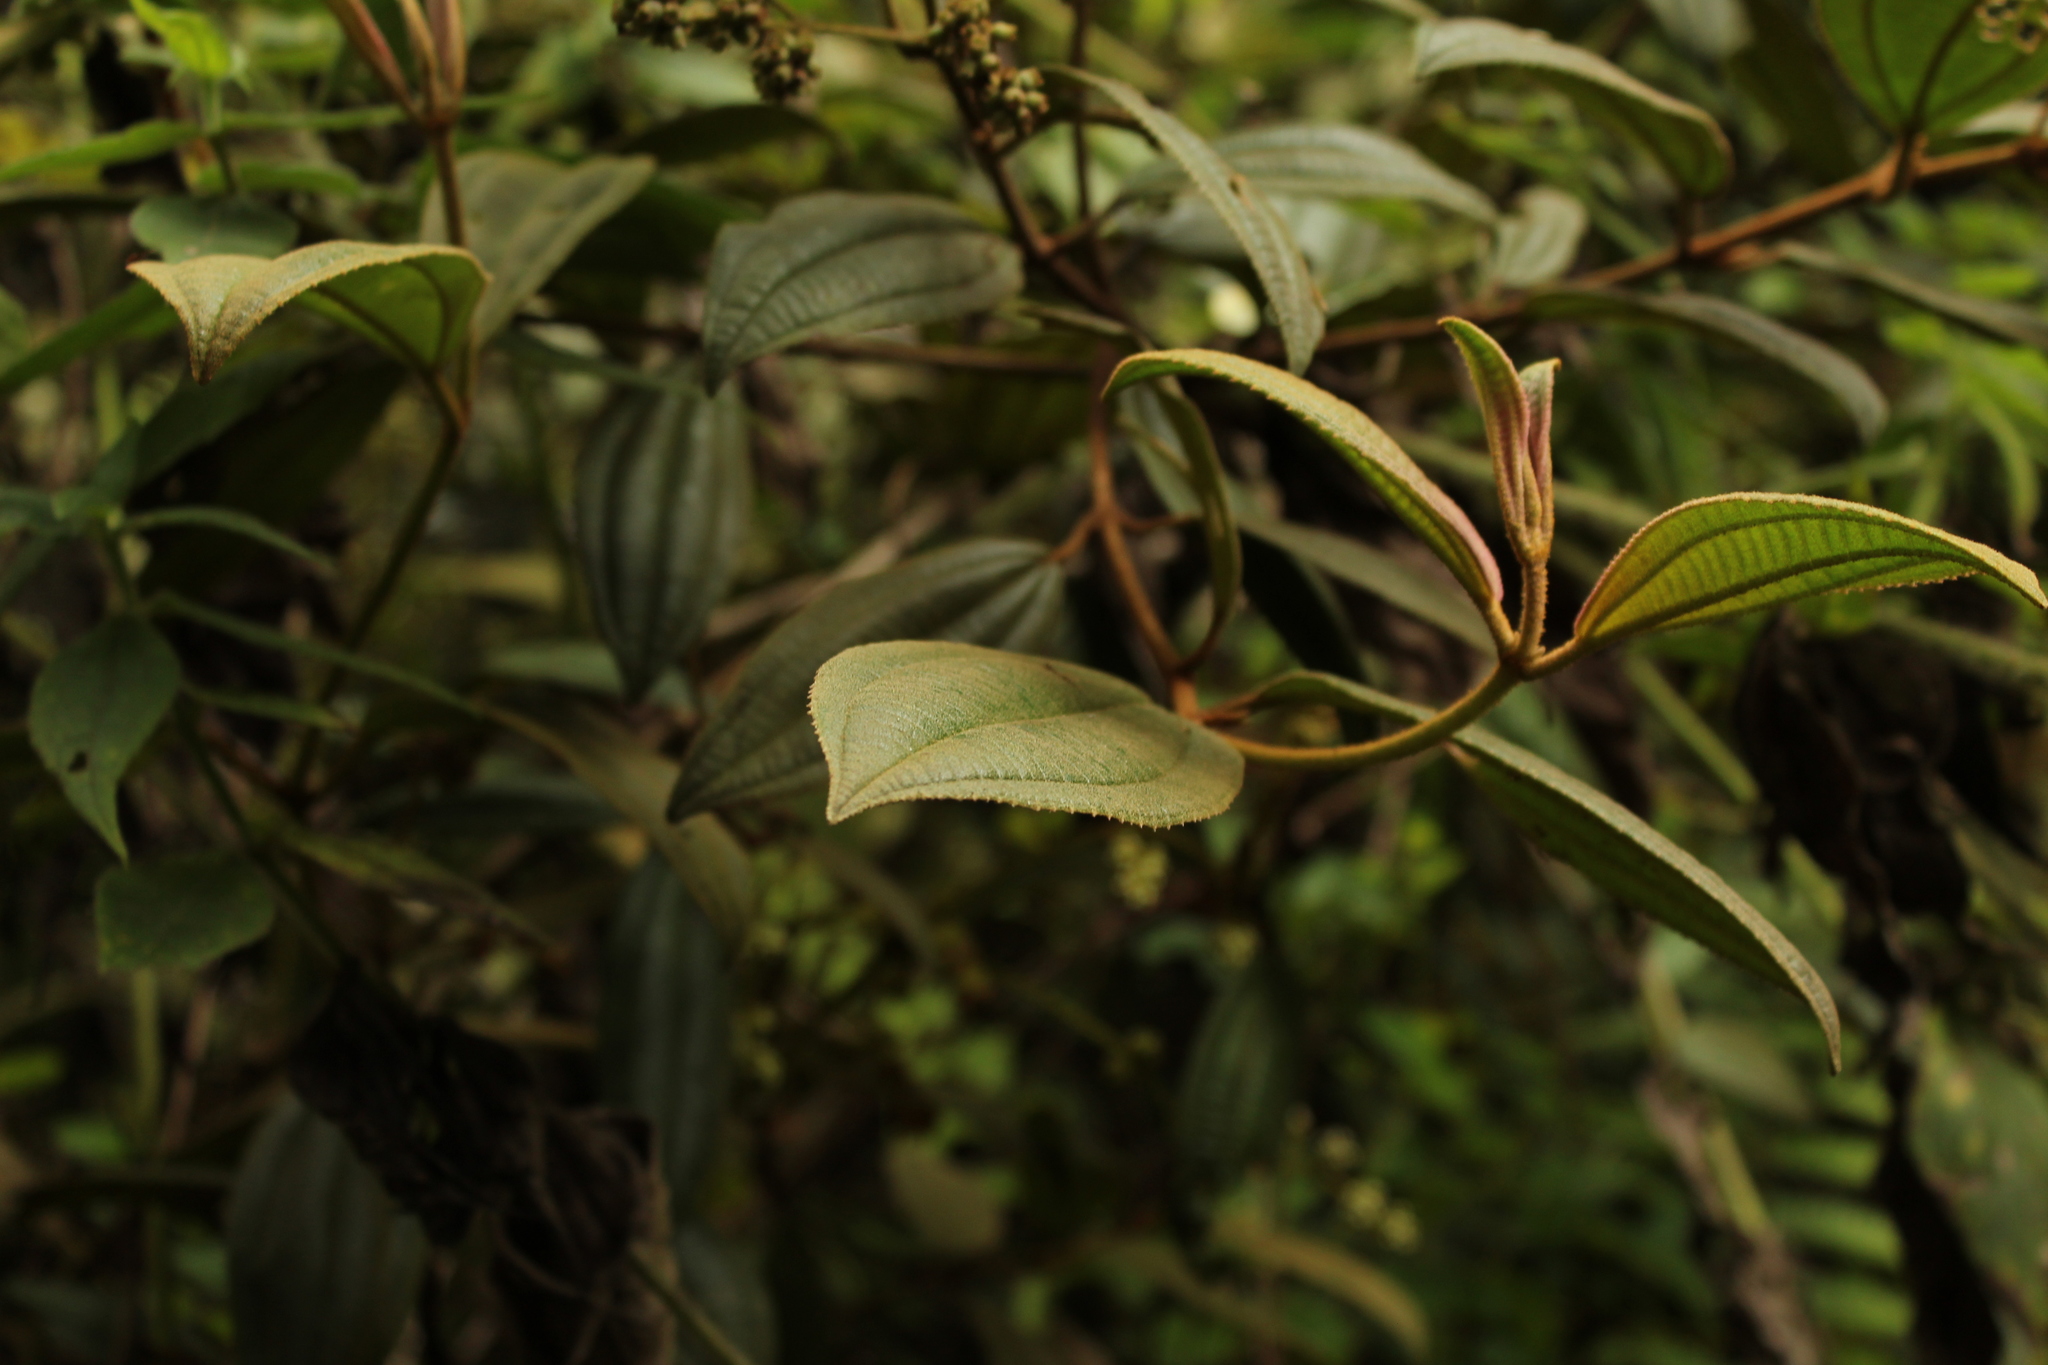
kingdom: Plantae
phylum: Tracheophyta
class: Magnoliopsida
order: Myrtales
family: Melastomataceae
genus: Miconia
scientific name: Miconia cataractae
